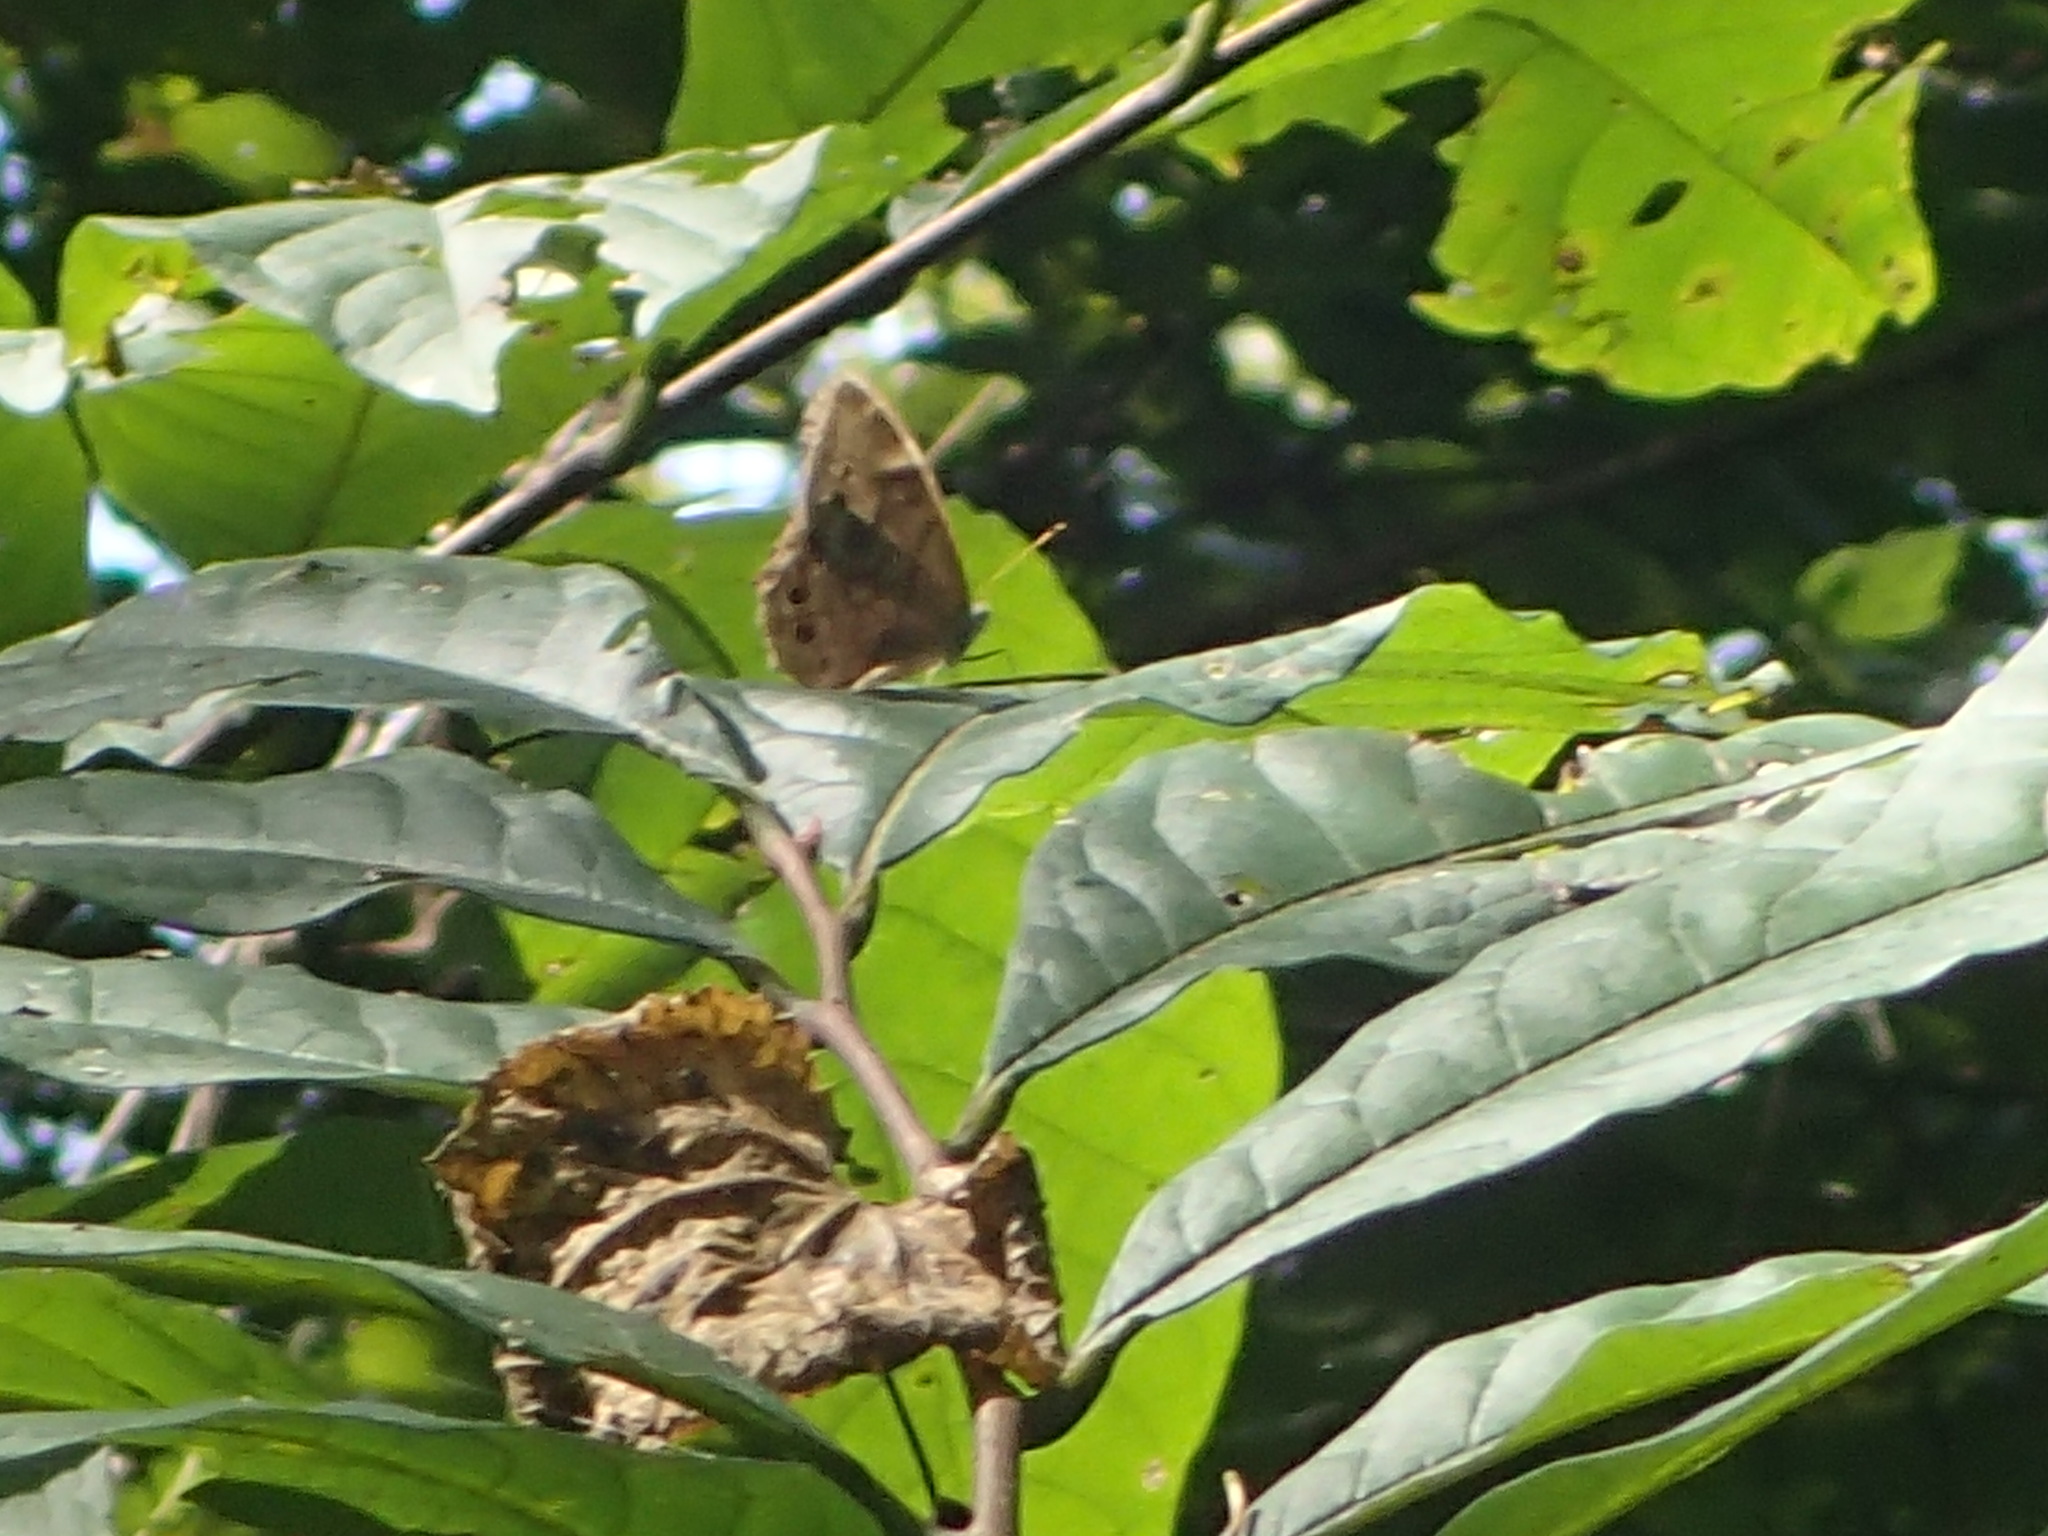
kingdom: Animalia
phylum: Arthropoda
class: Insecta
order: Lepidoptera
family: Nymphalidae
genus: Lethe
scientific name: Lethe anthedon
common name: Northern pearly-eye
